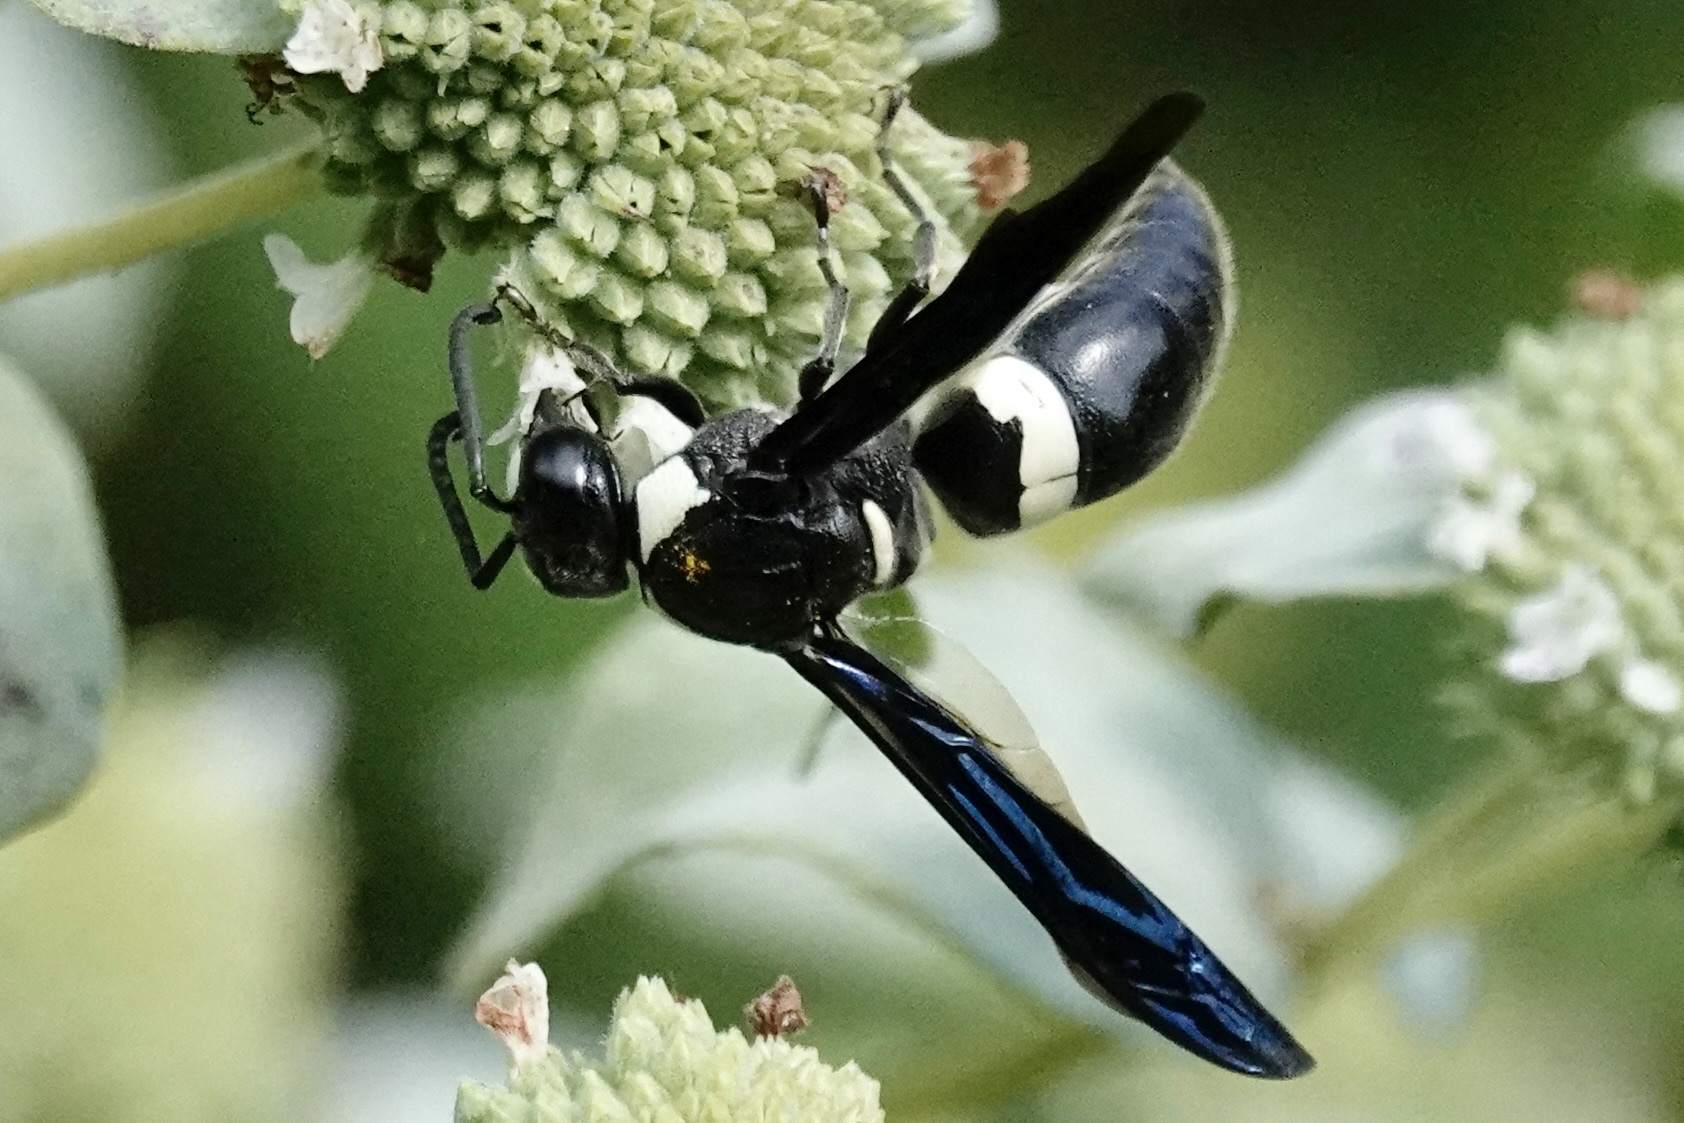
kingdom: Animalia
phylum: Arthropoda
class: Insecta
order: Hymenoptera
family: Eumenidae
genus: Monobia
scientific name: Monobia quadridens
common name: Four-toothed mason wasp
